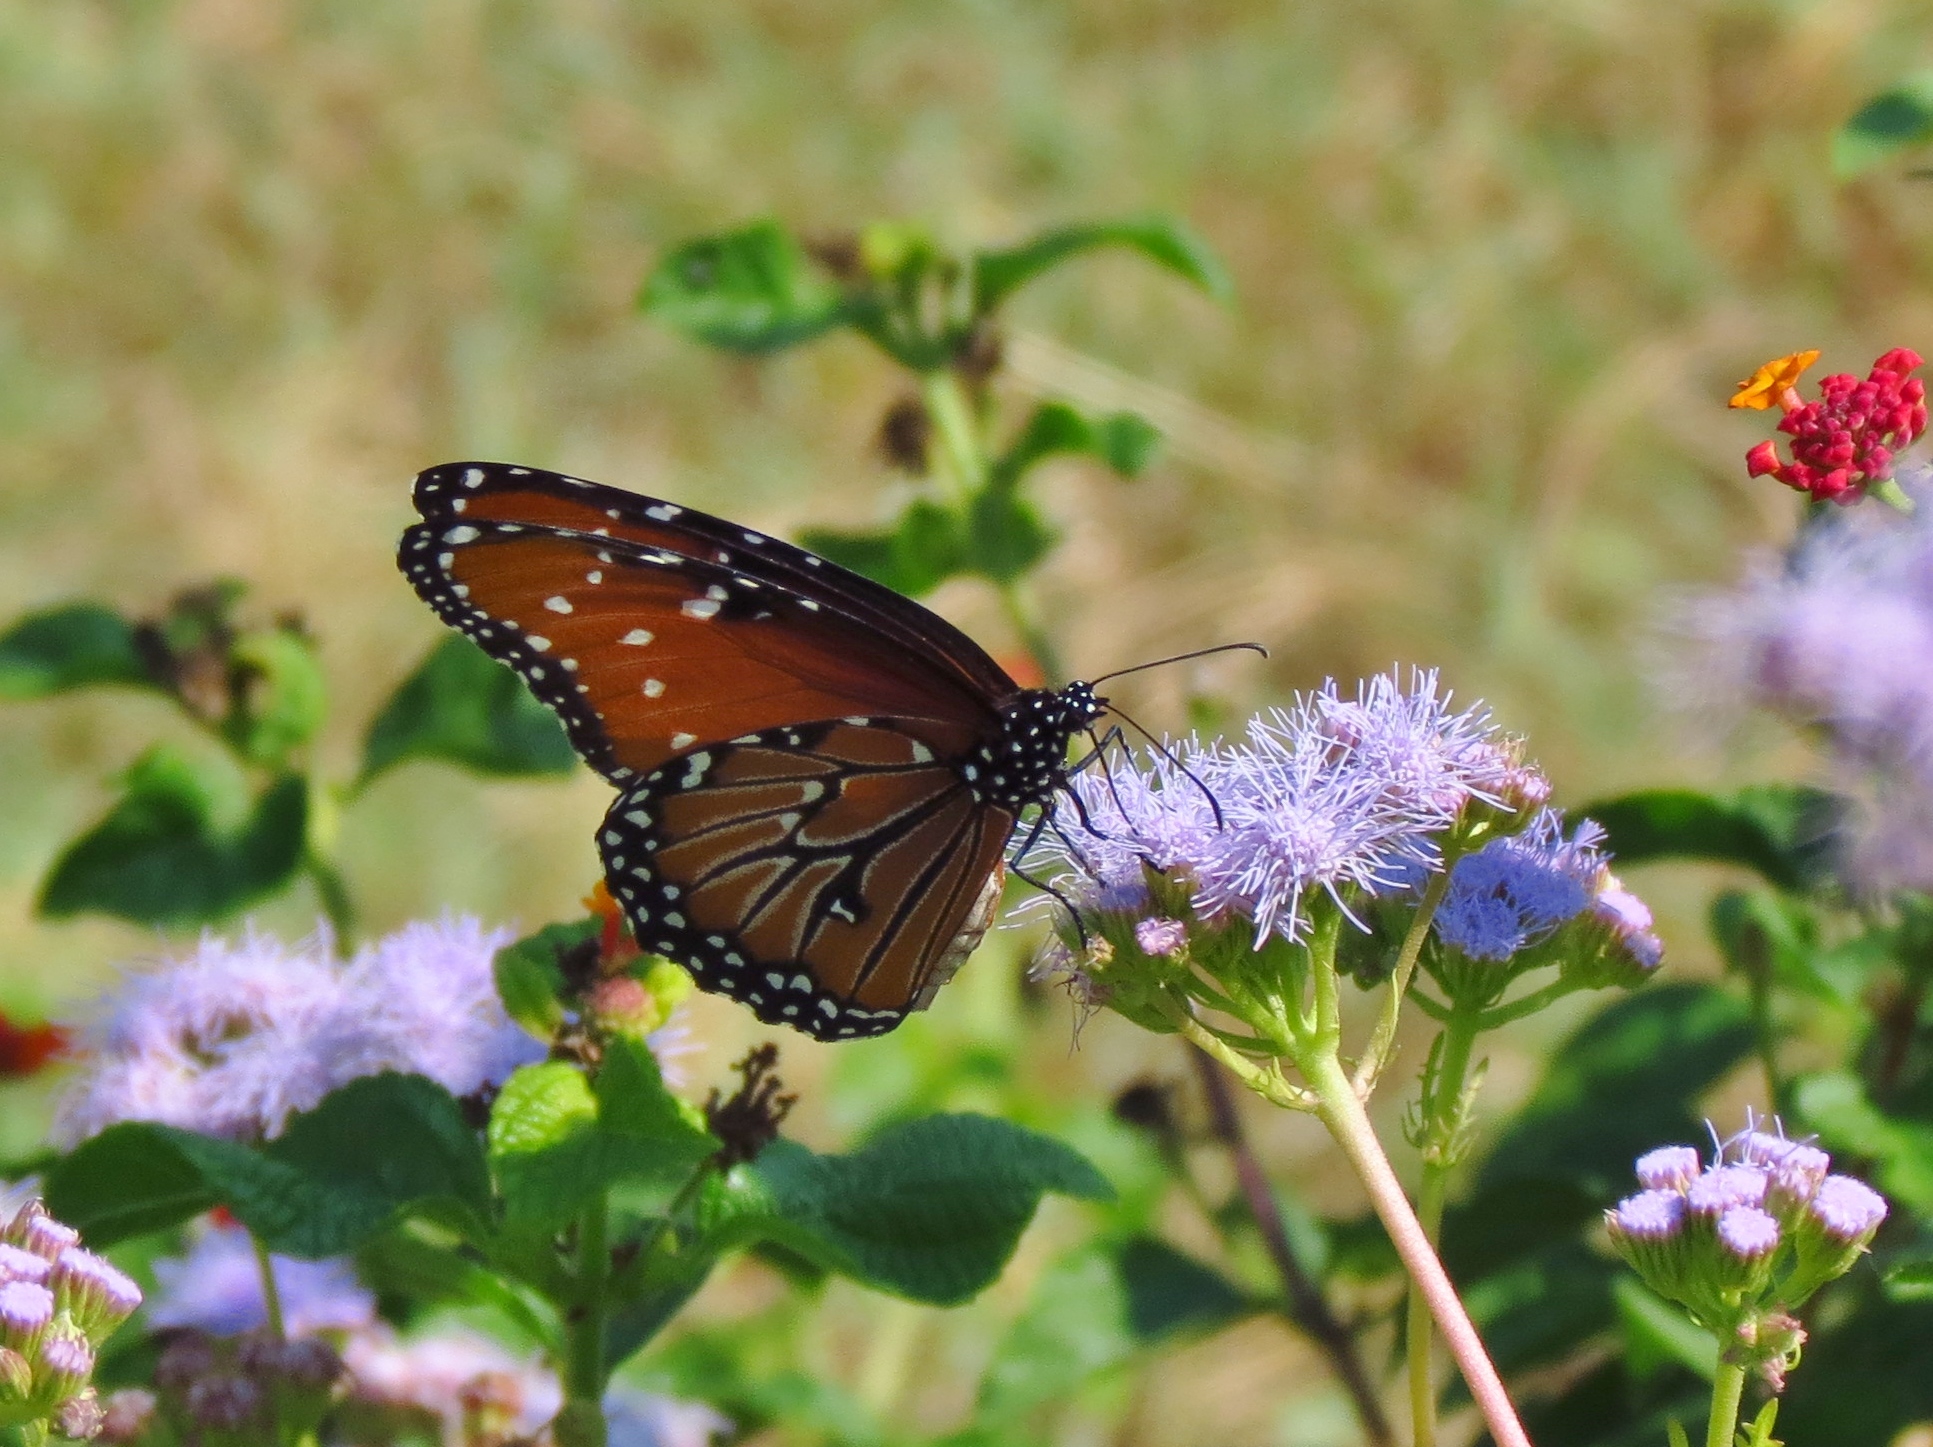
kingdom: Animalia
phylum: Arthropoda
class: Insecta
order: Lepidoptera
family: Nymphalidae
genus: Danaus
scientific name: Danaus gilippus
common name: Queen
